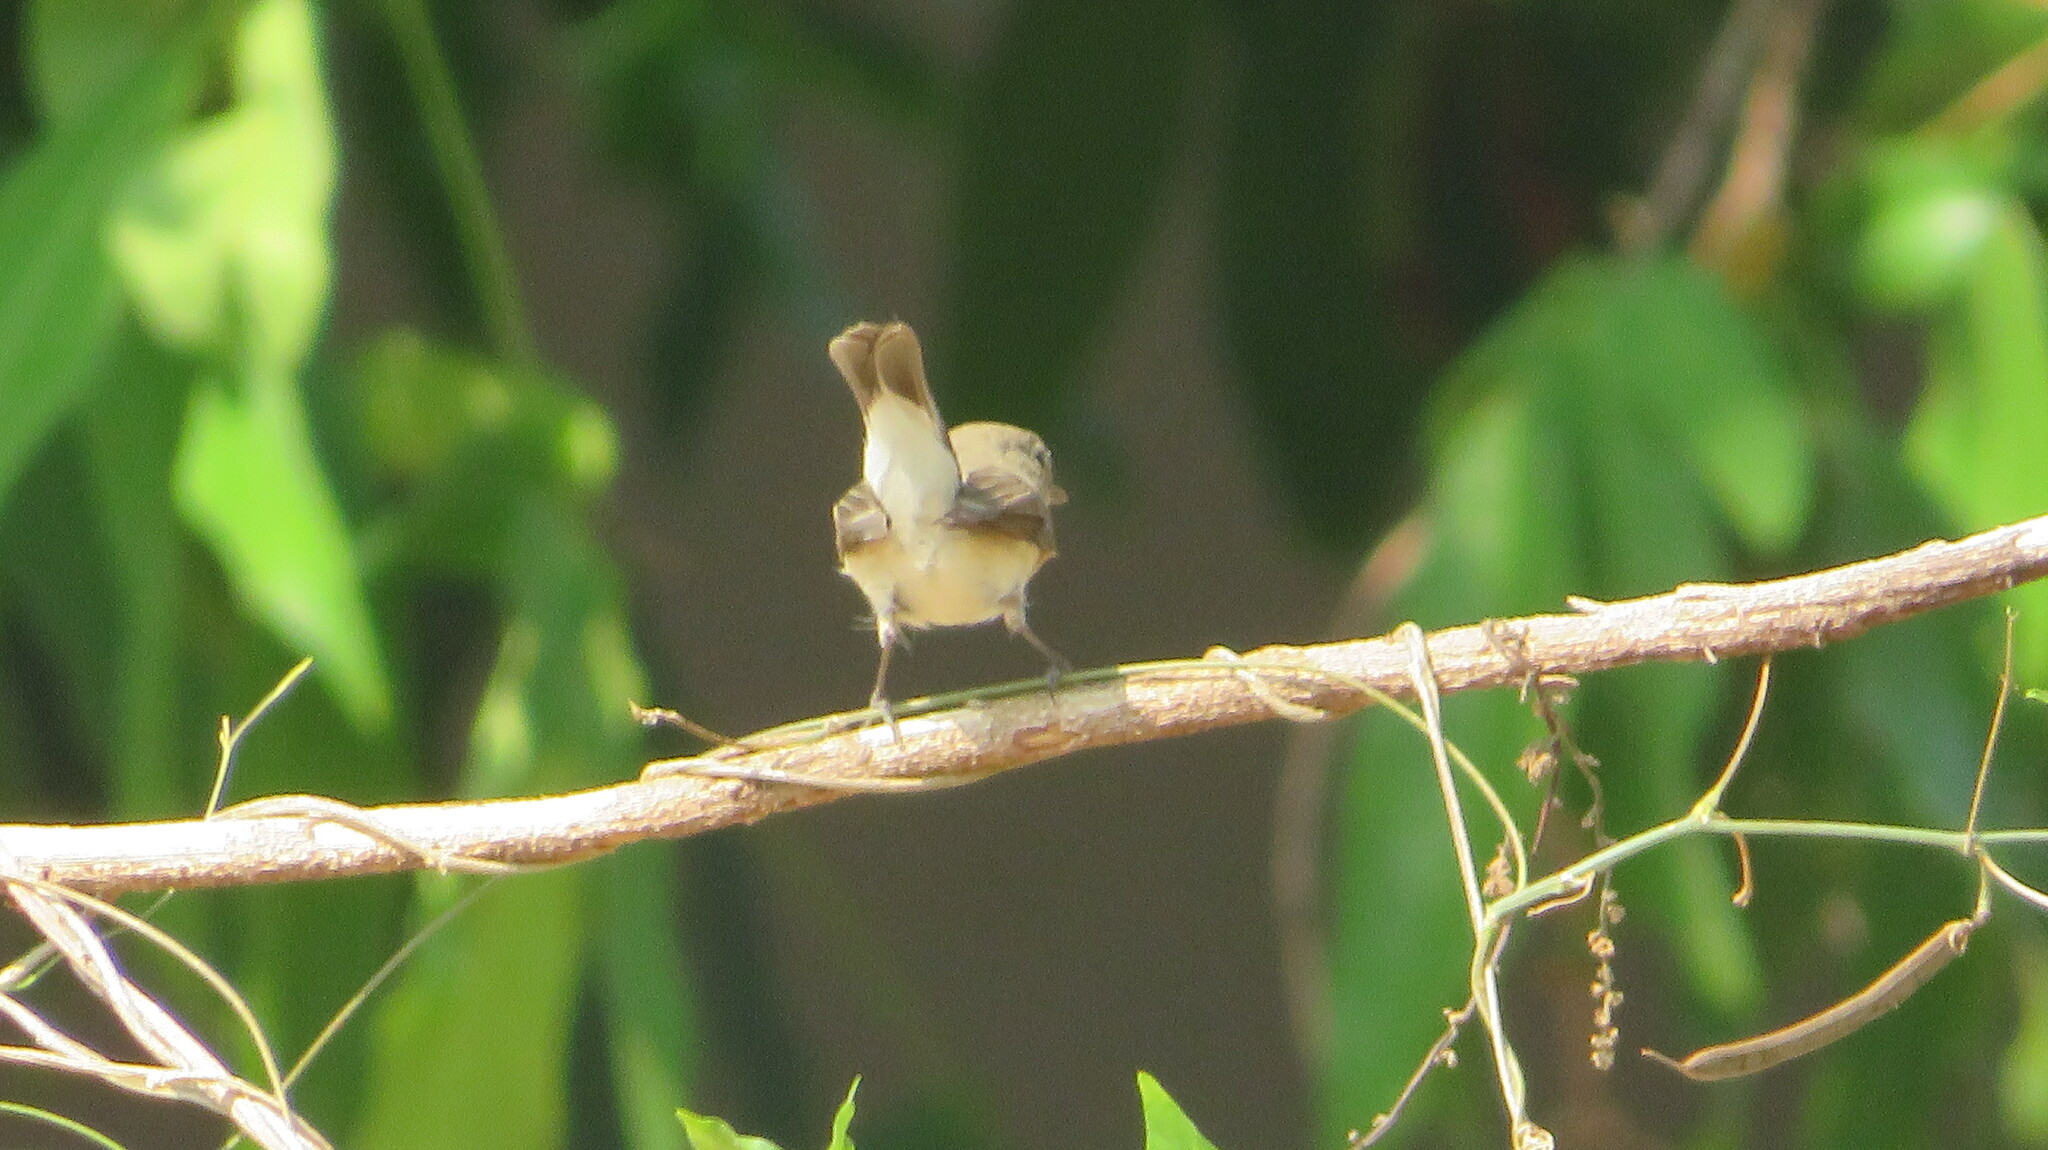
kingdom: Animalia
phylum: Chordata
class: Aves
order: Passeriformes
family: Muscicapidae
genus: Ficedula
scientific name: Ficedula albicilla
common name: Taiga flycatcher
